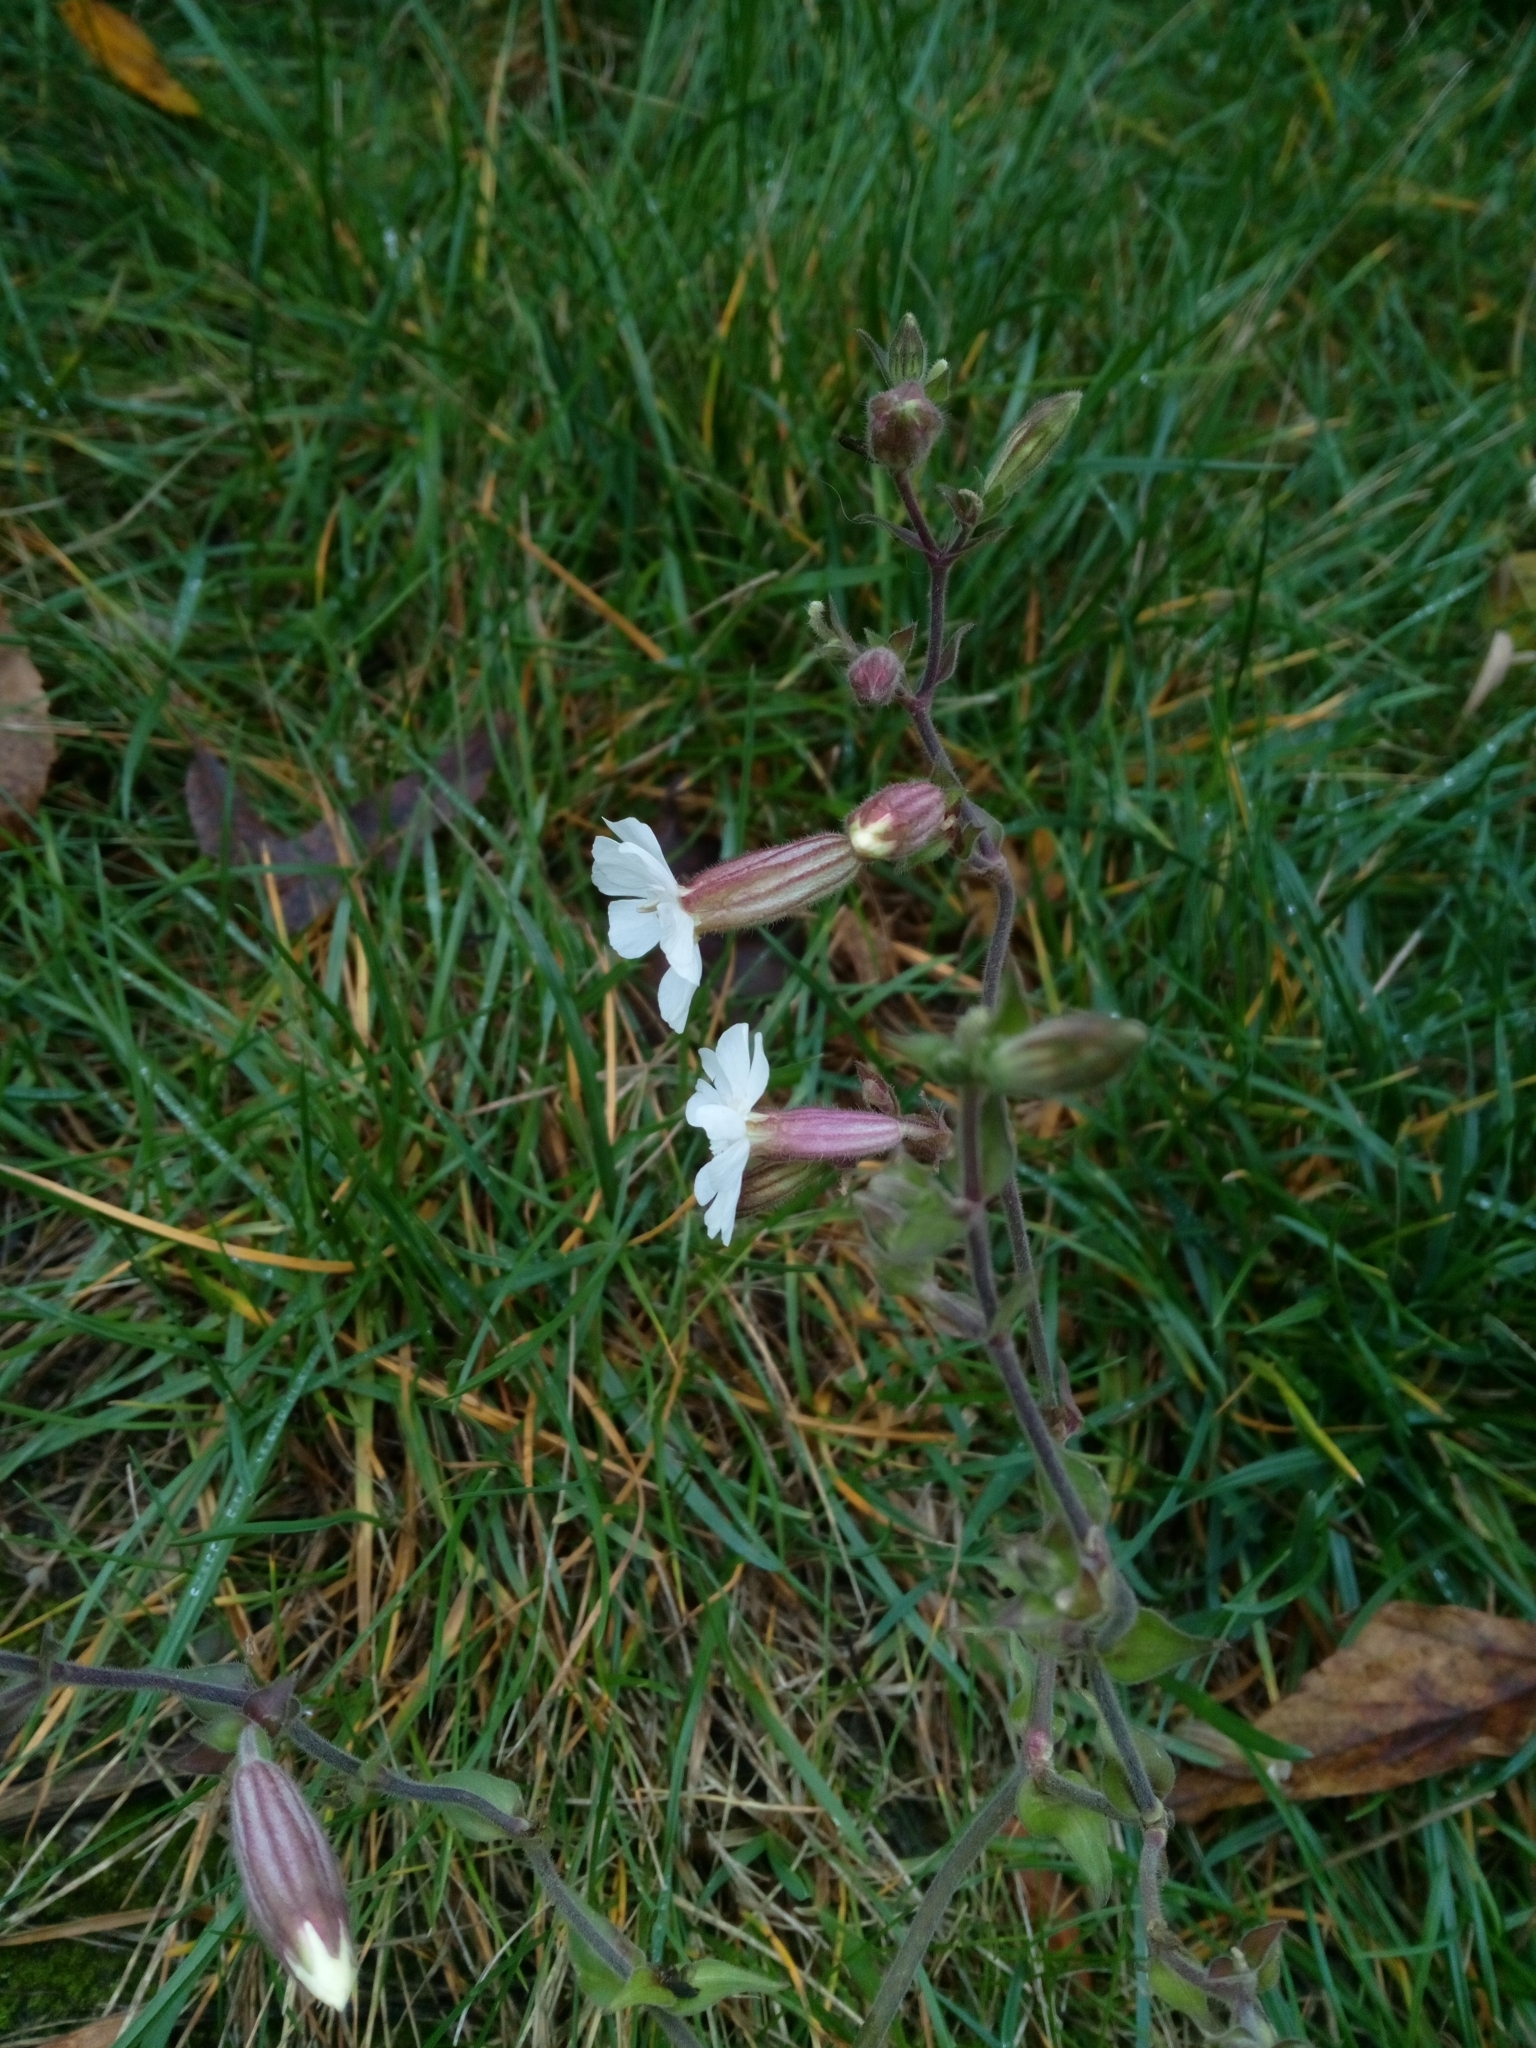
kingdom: Plantae
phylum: Tracheophyta
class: Magnoliopsida
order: Caryophyllales
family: Caryophyllaceae
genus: Silene
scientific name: Silene latifolia
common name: White campion
